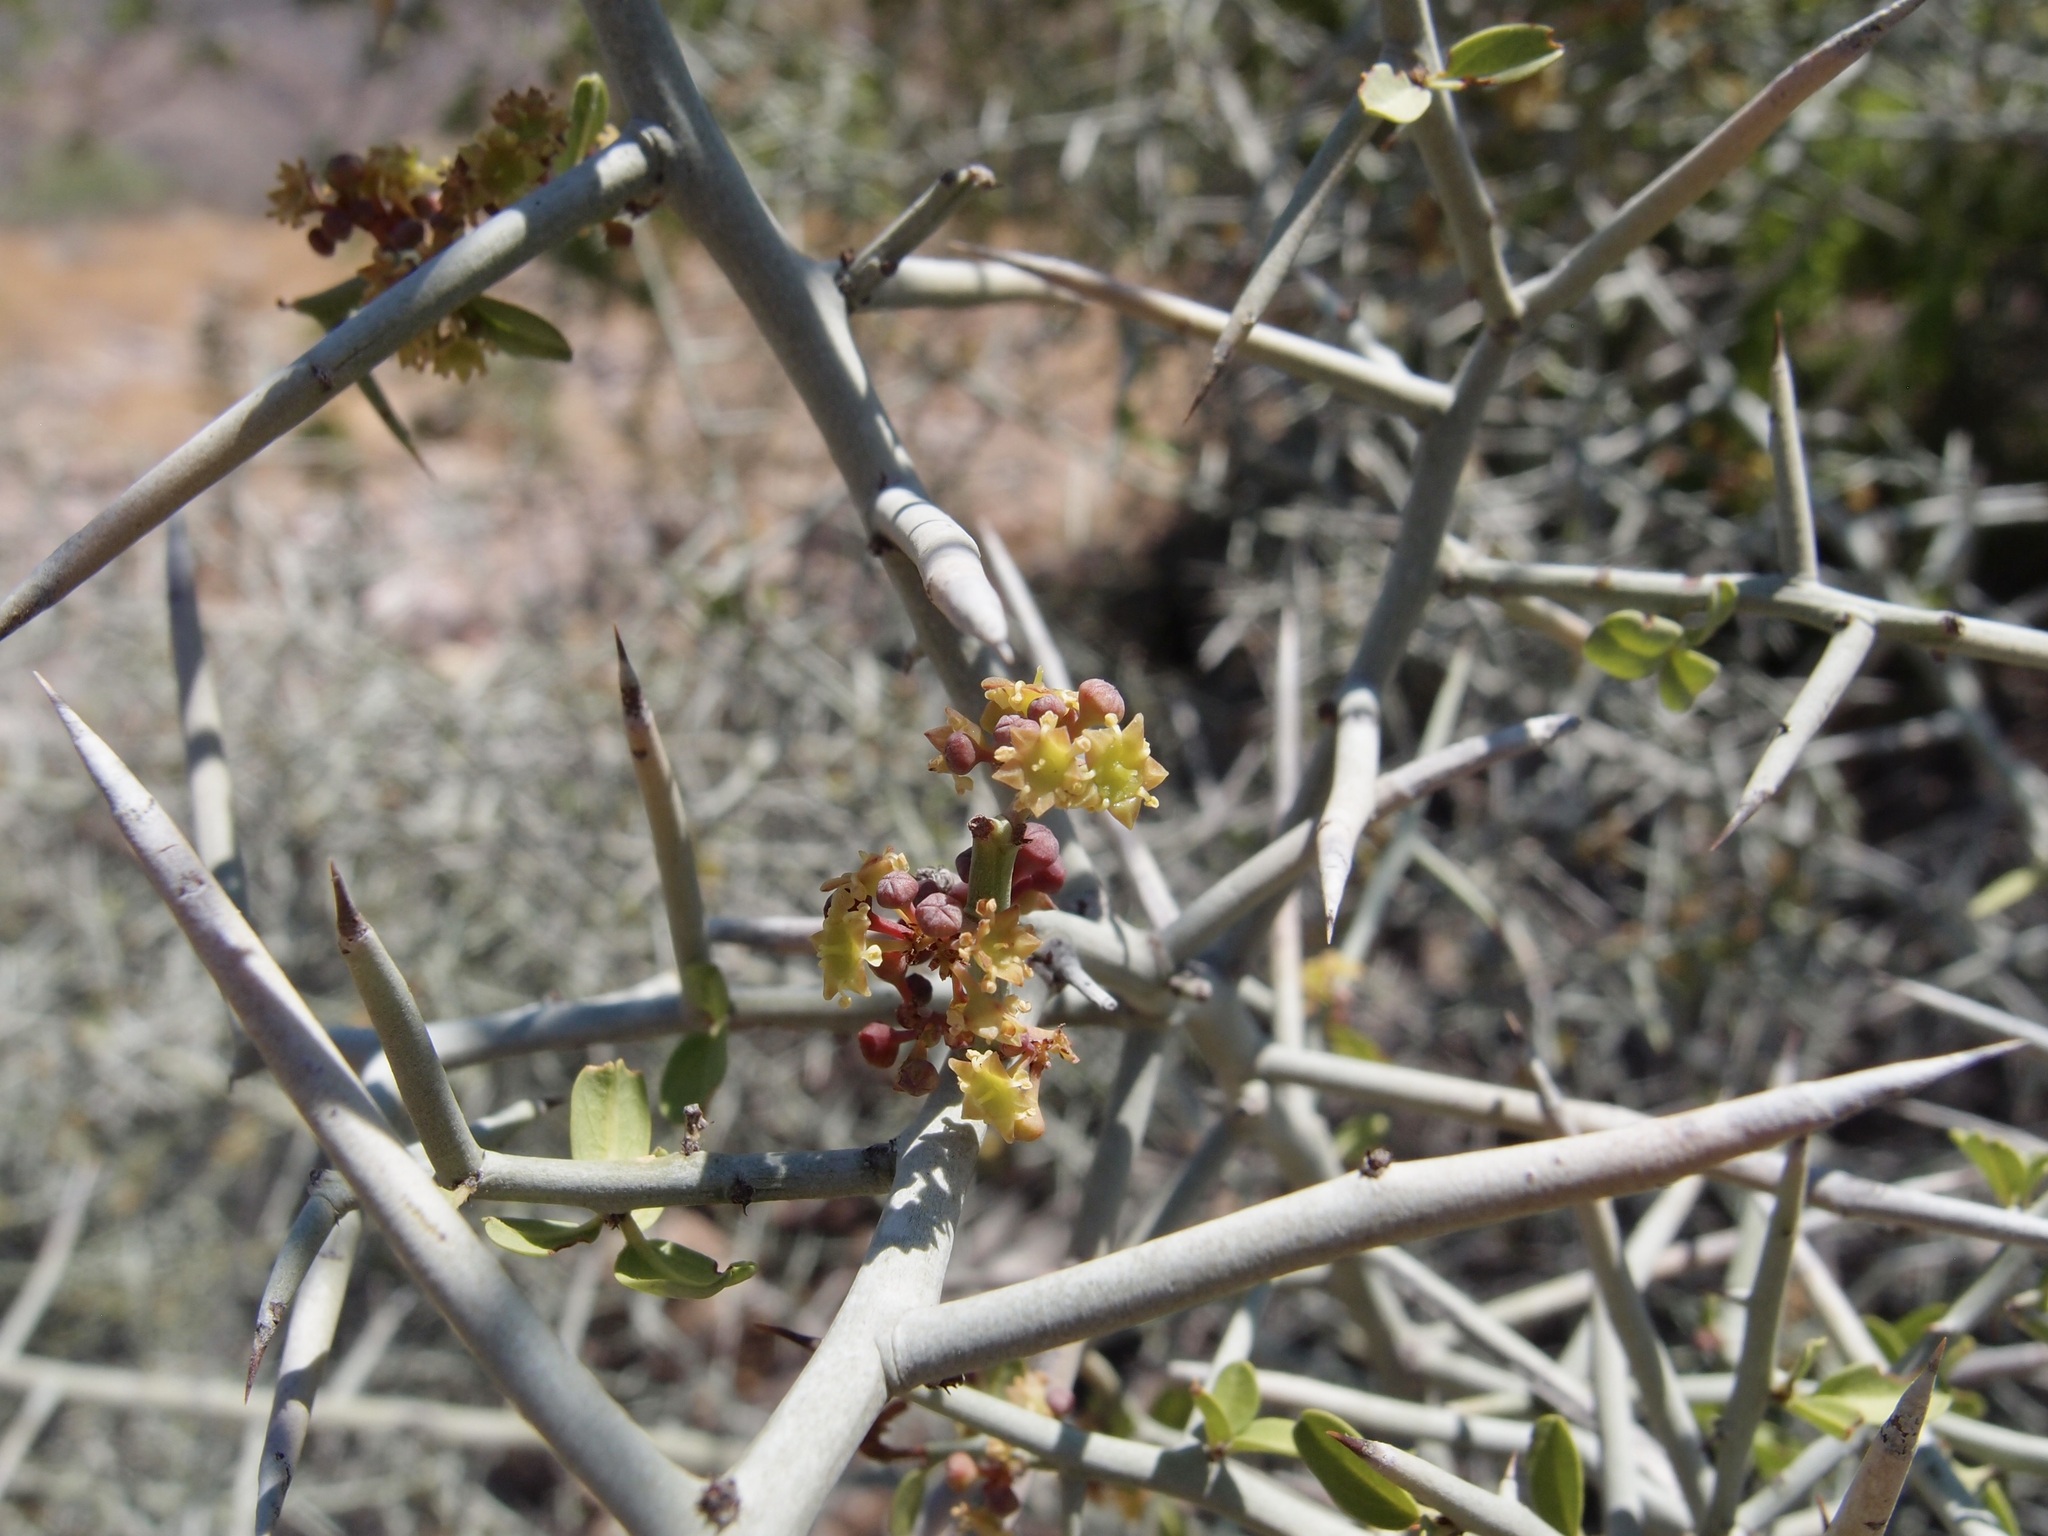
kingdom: Plantae
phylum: Tracheophyta
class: Magnoliopsida
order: Rosales
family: Rhamnaceae
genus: Sarcomphalus
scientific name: Sarcomphalus obtusifolius
